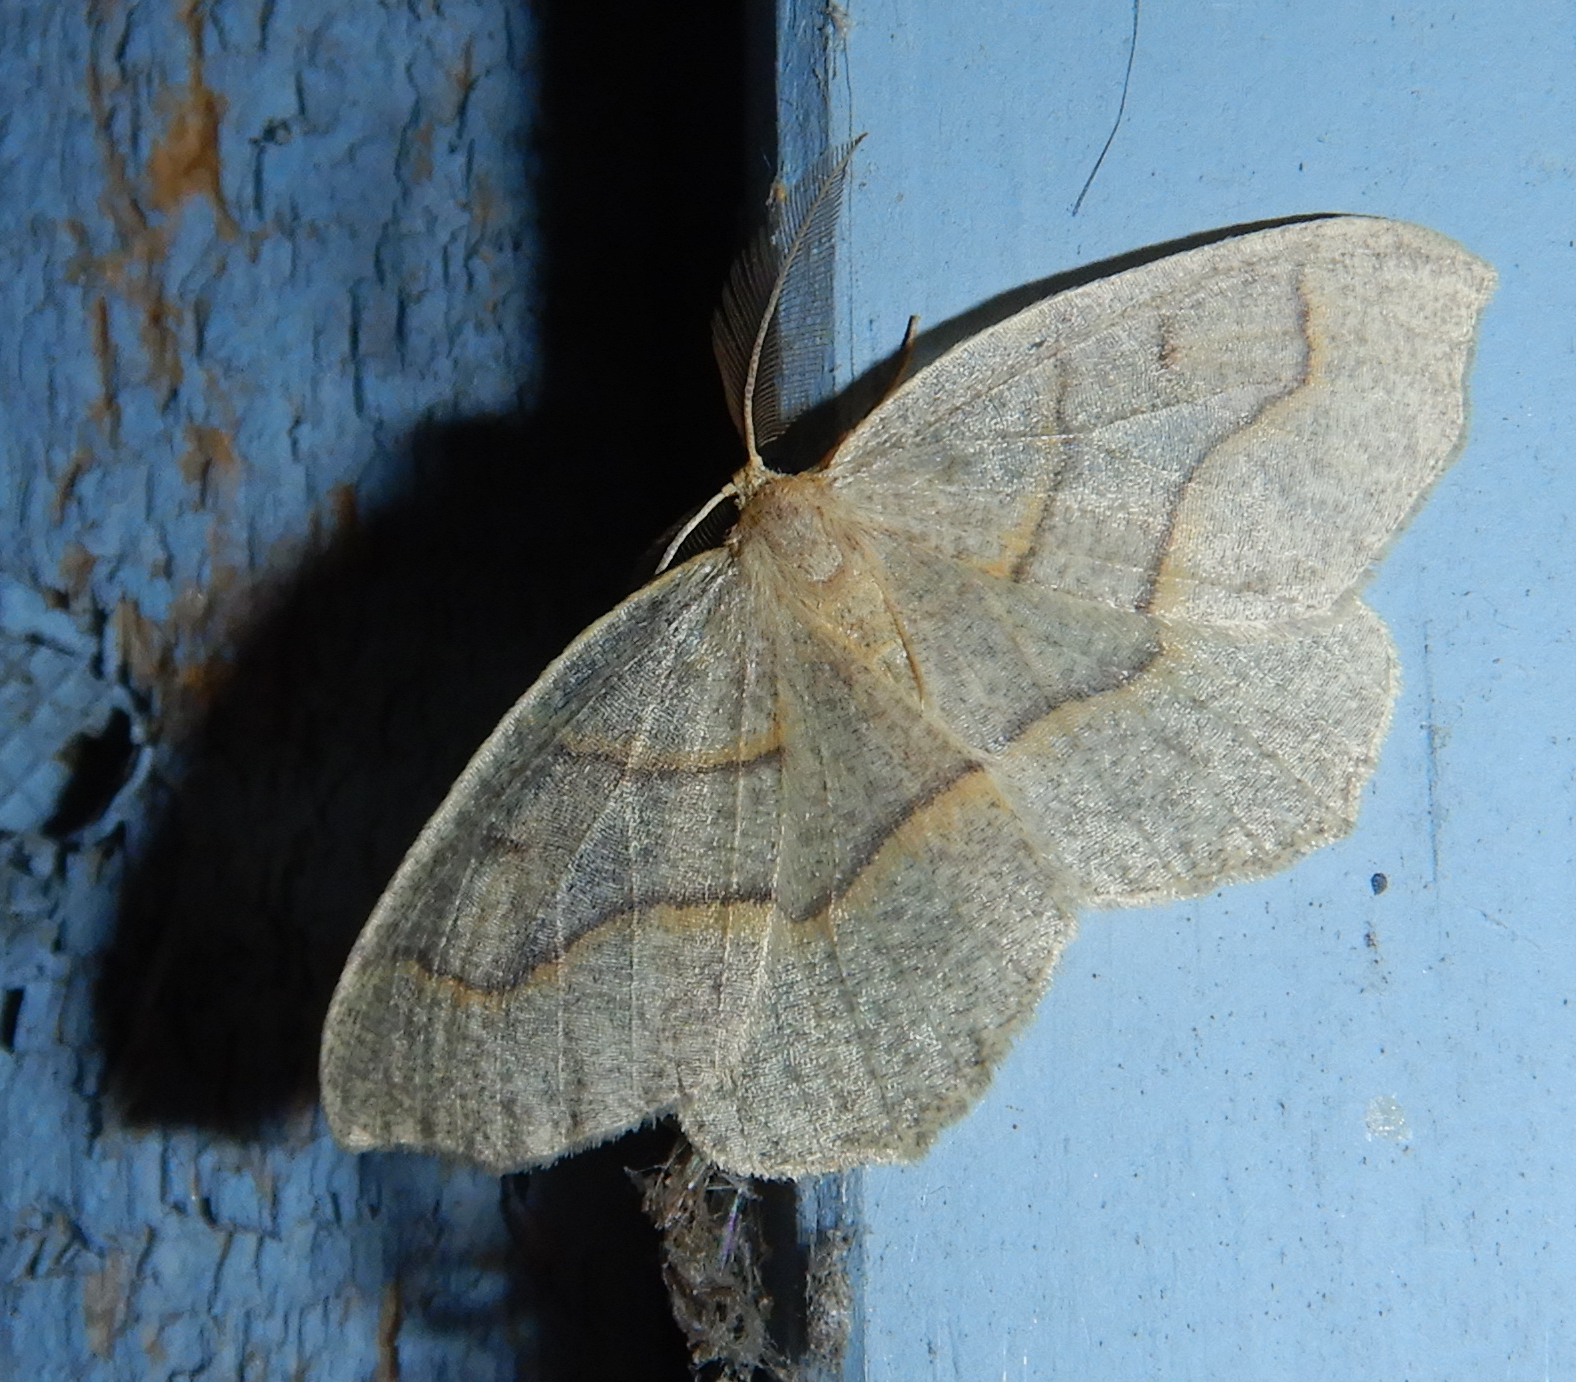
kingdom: Animalia
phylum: Arthropoda
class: Insecta
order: Lepidoptera
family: Geometridae
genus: Lambdina
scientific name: Lambdina fiscellaria
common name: Hemlock looper
